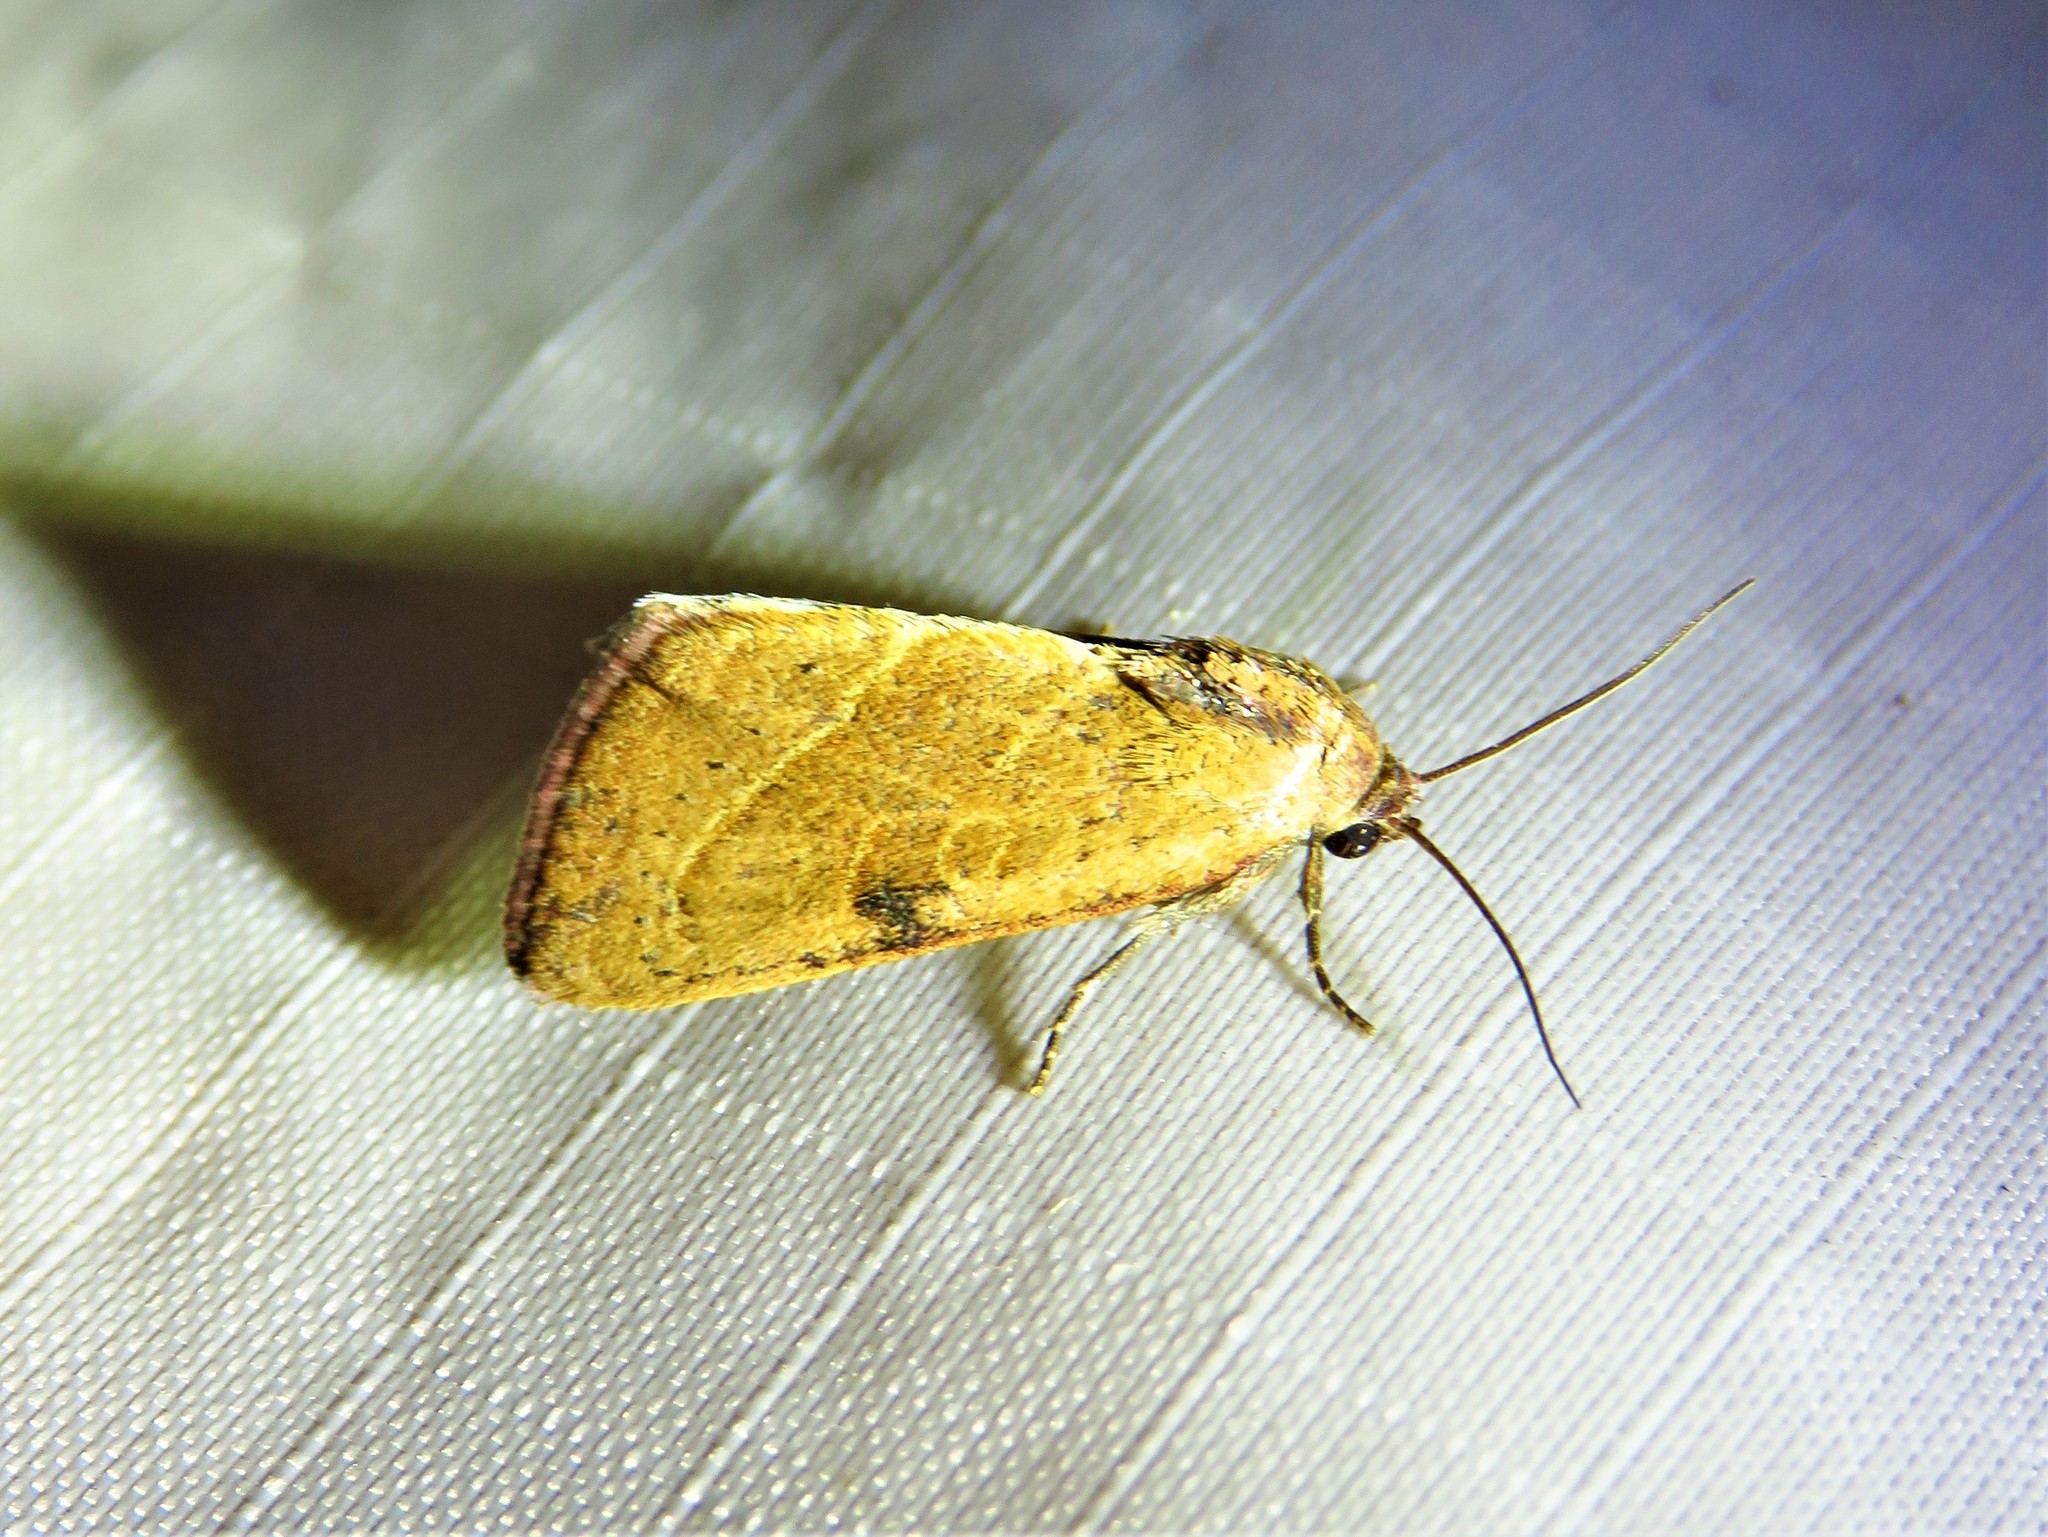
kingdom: Animalia
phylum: Arthropoda
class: Insecta
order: Lepidoptera
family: Noctuidae
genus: Galgula
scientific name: Galgula partita
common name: Wedgeling
